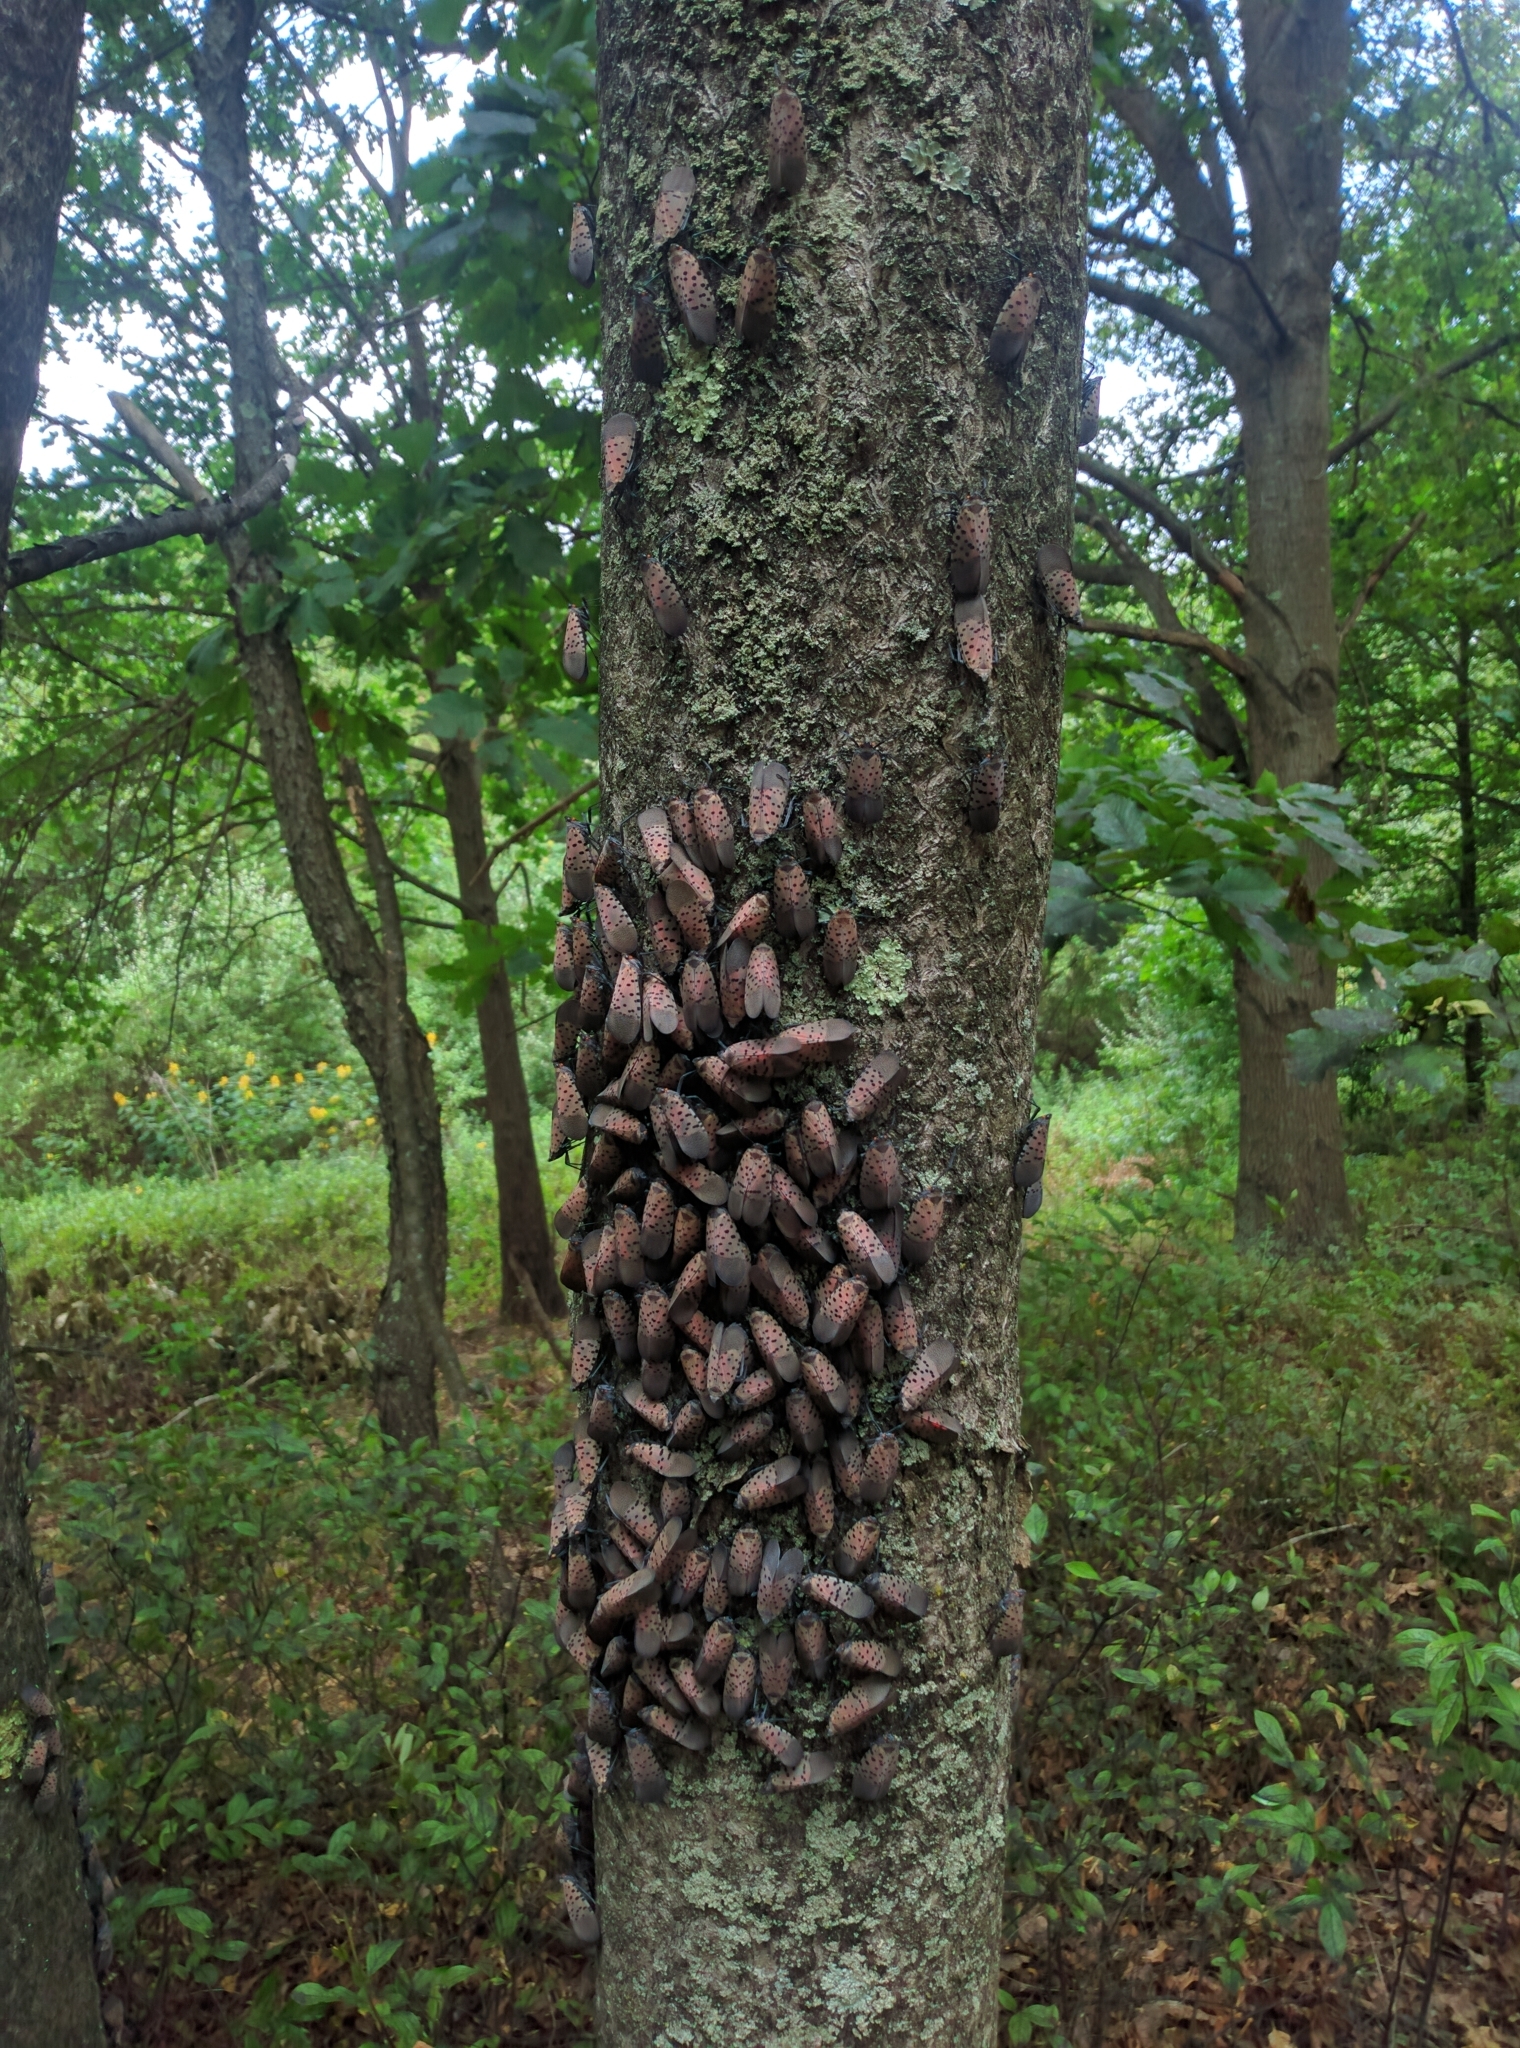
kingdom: Animalia
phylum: Arthropoda
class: Insecta
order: Hemiptera
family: Fulgoridae
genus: Lycorma
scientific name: Lycorma delicatula
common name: Spotted lanternfly
